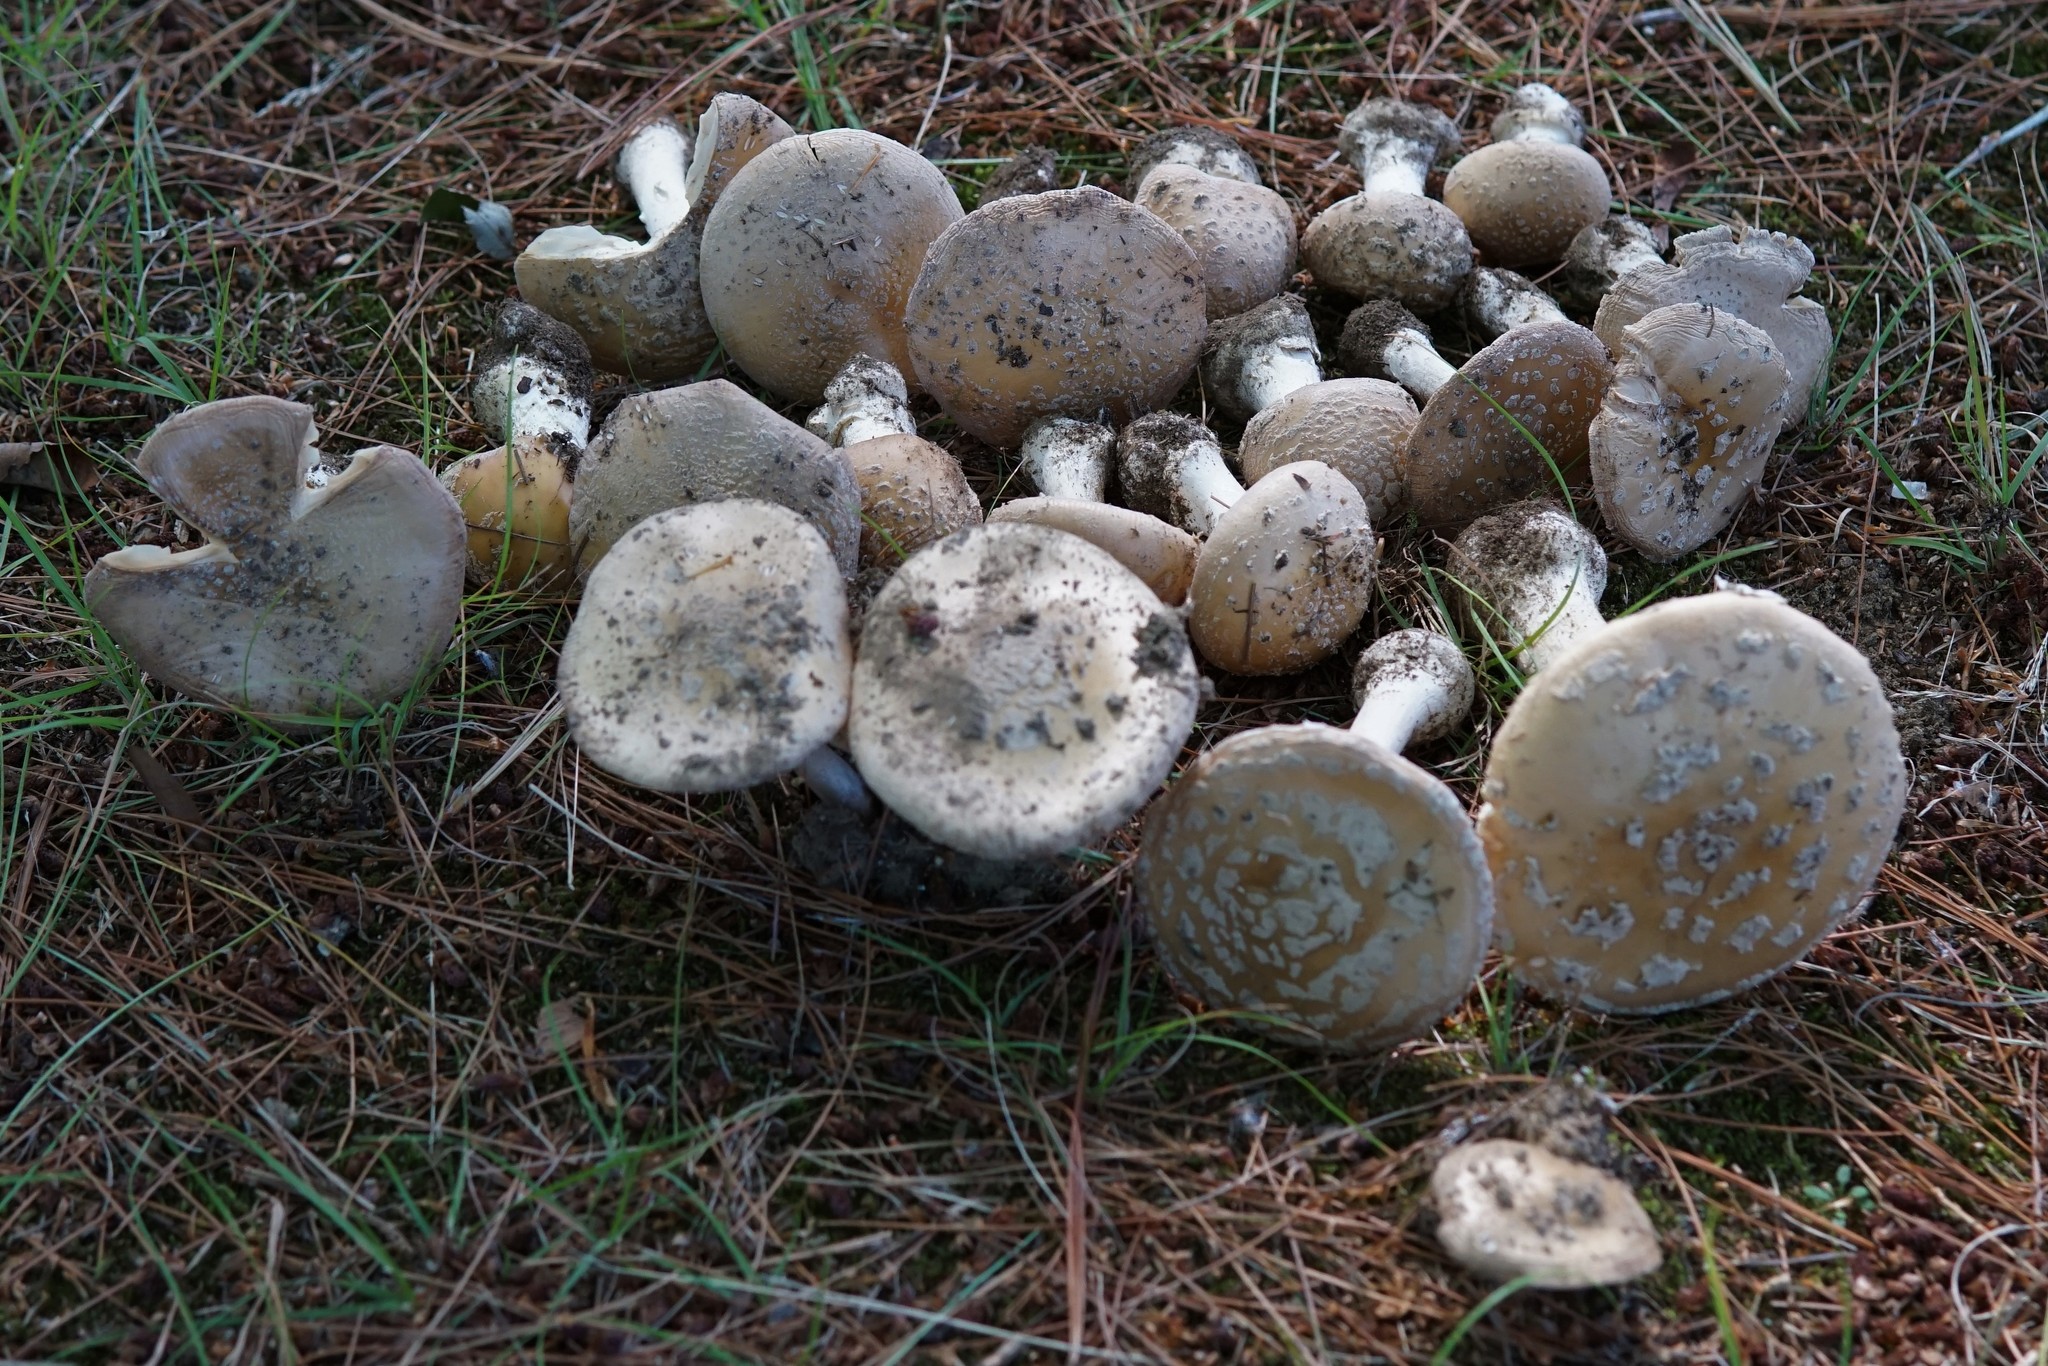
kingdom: Fungi
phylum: Basidiomycota
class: Agaricomycetes
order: Agaricales
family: Amanitaceae
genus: Amanita
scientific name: Amanita crenulata
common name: Poison champagne amanita
